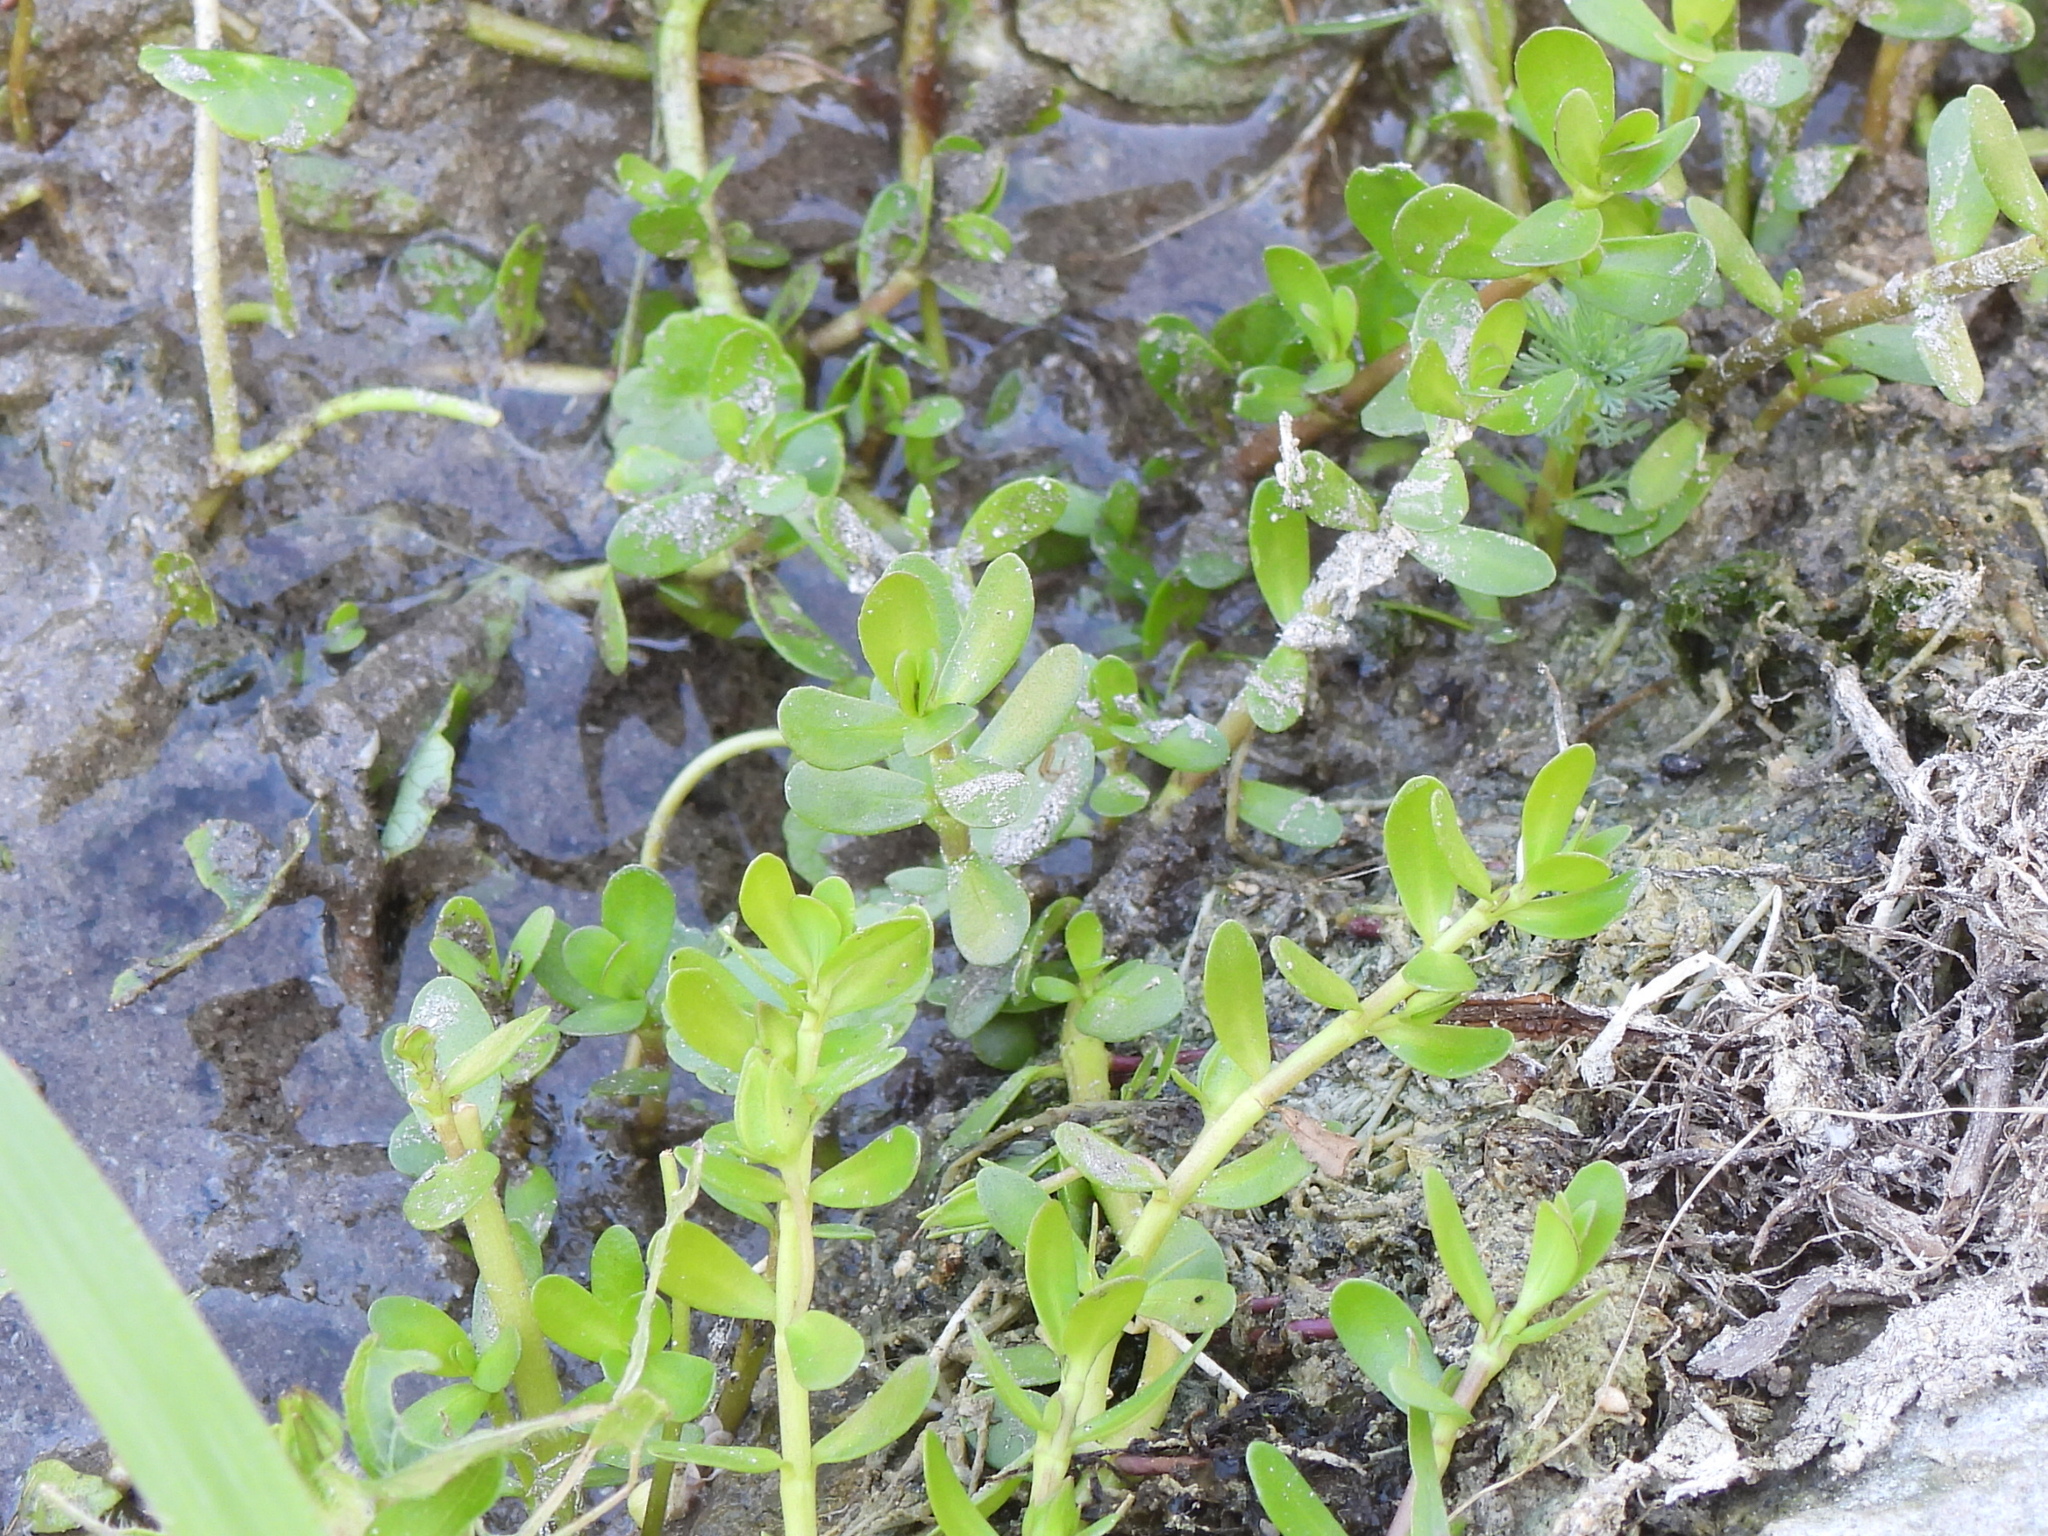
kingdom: Plantae
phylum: Tracheophyta
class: Magnoliopsida
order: Lamiales
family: Plantaginaceae
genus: Bacopa
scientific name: Bacopa monnieri
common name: Indian-pennywort
